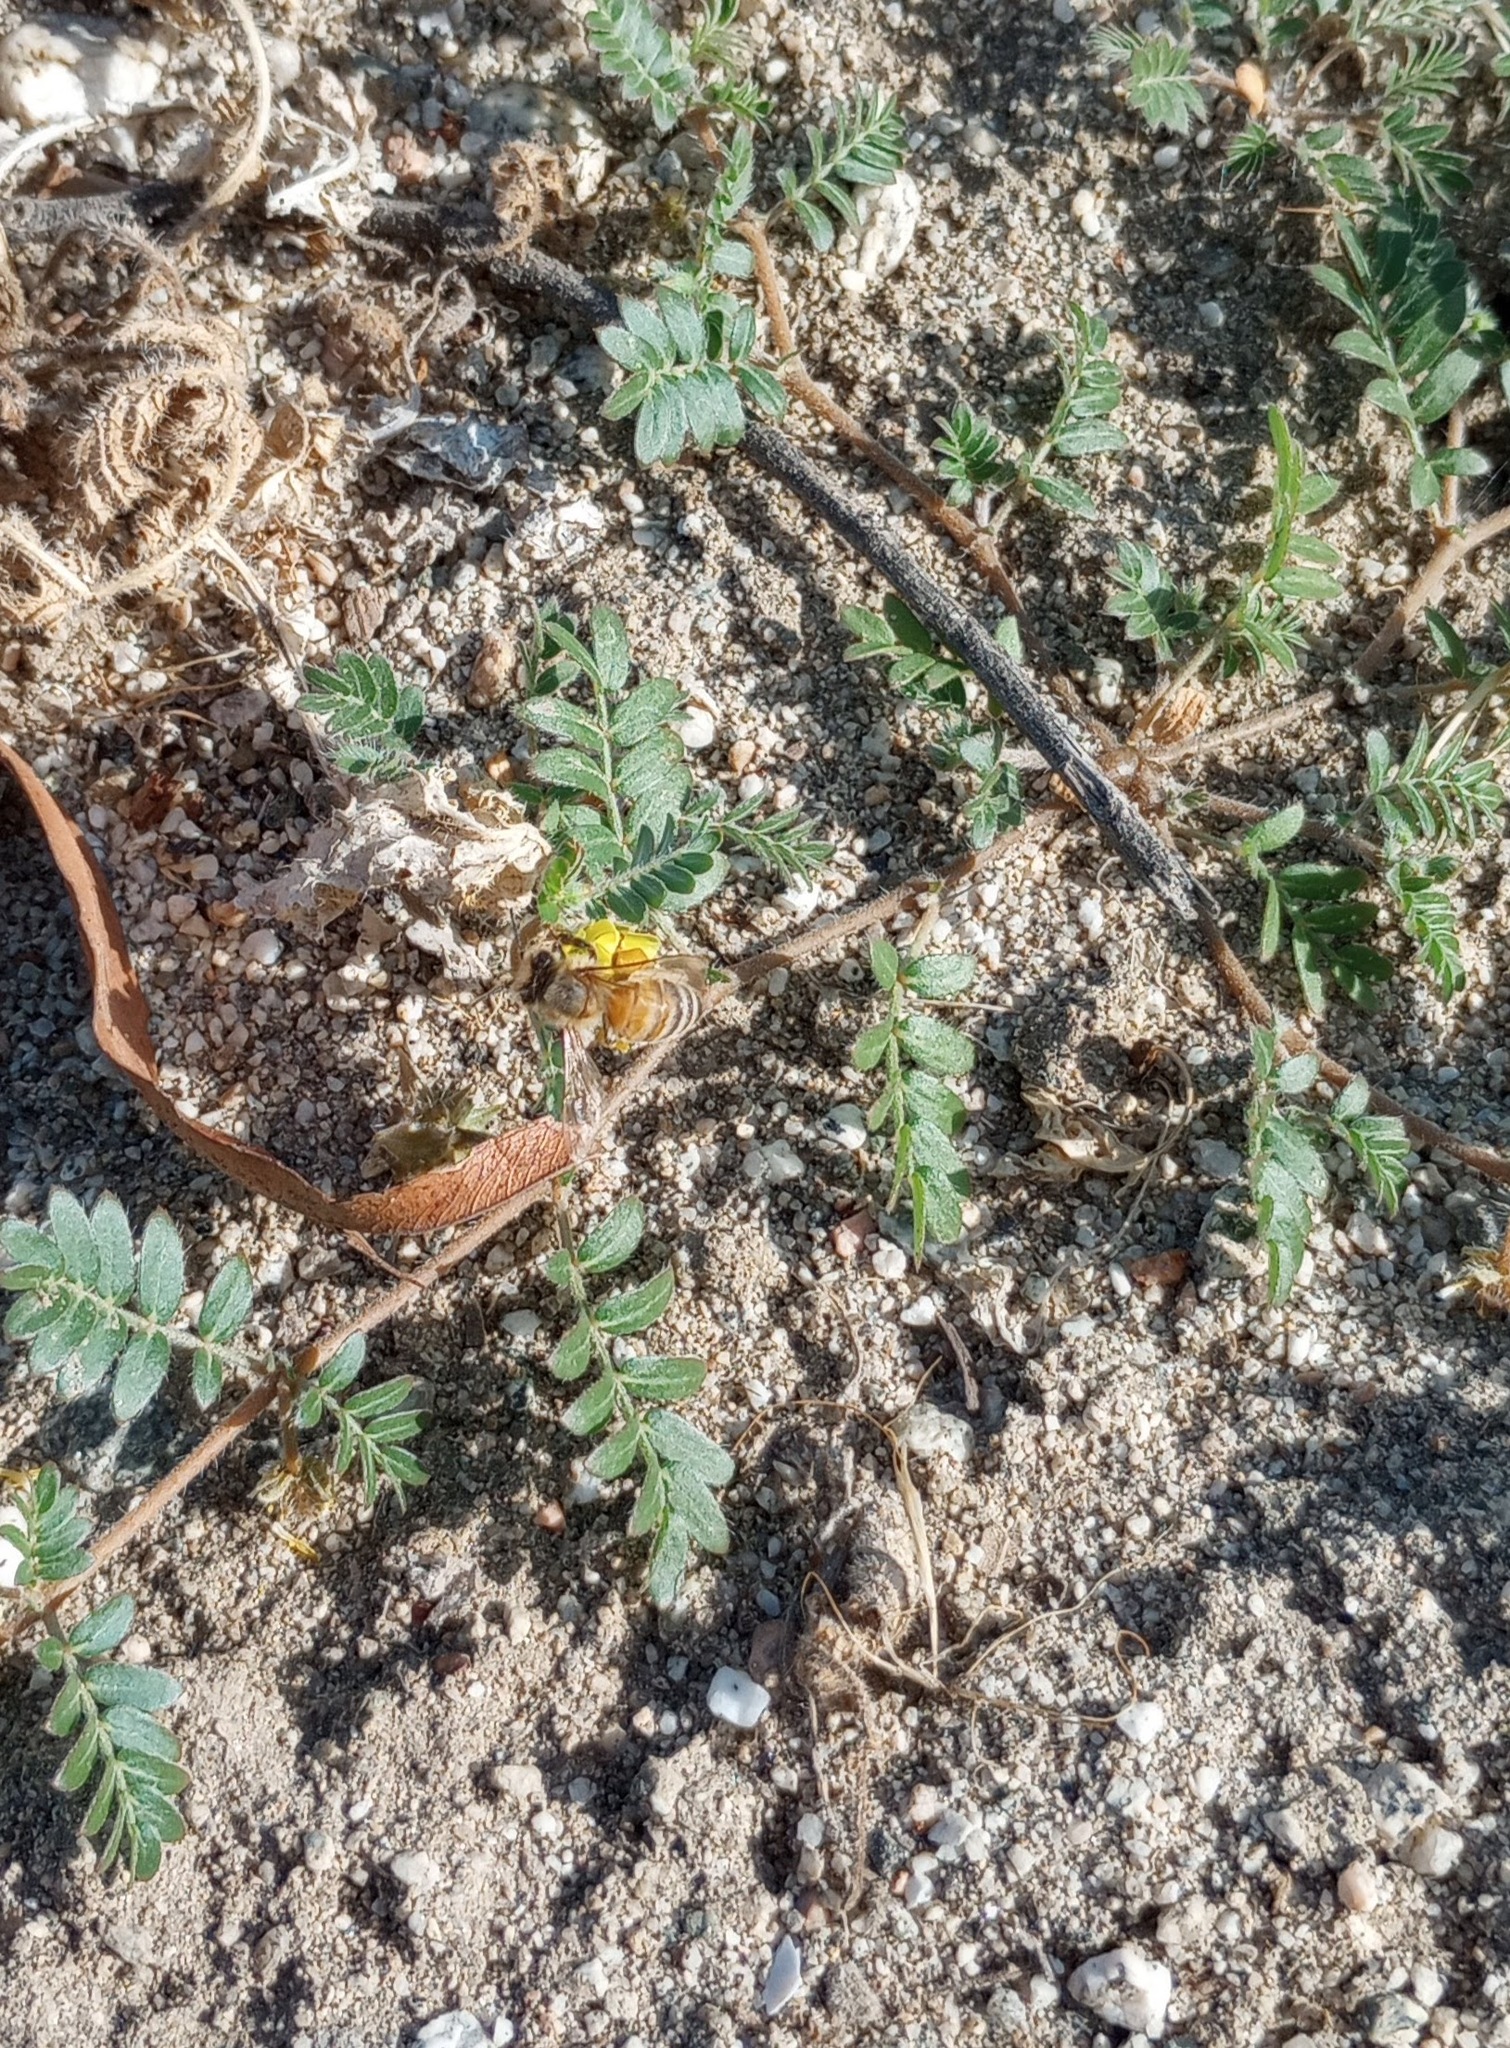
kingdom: Animalia
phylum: Arthropoda
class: Insecta
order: Hymenoptera
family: Apidae
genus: Apis
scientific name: Apis mellifera
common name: Honey bee
